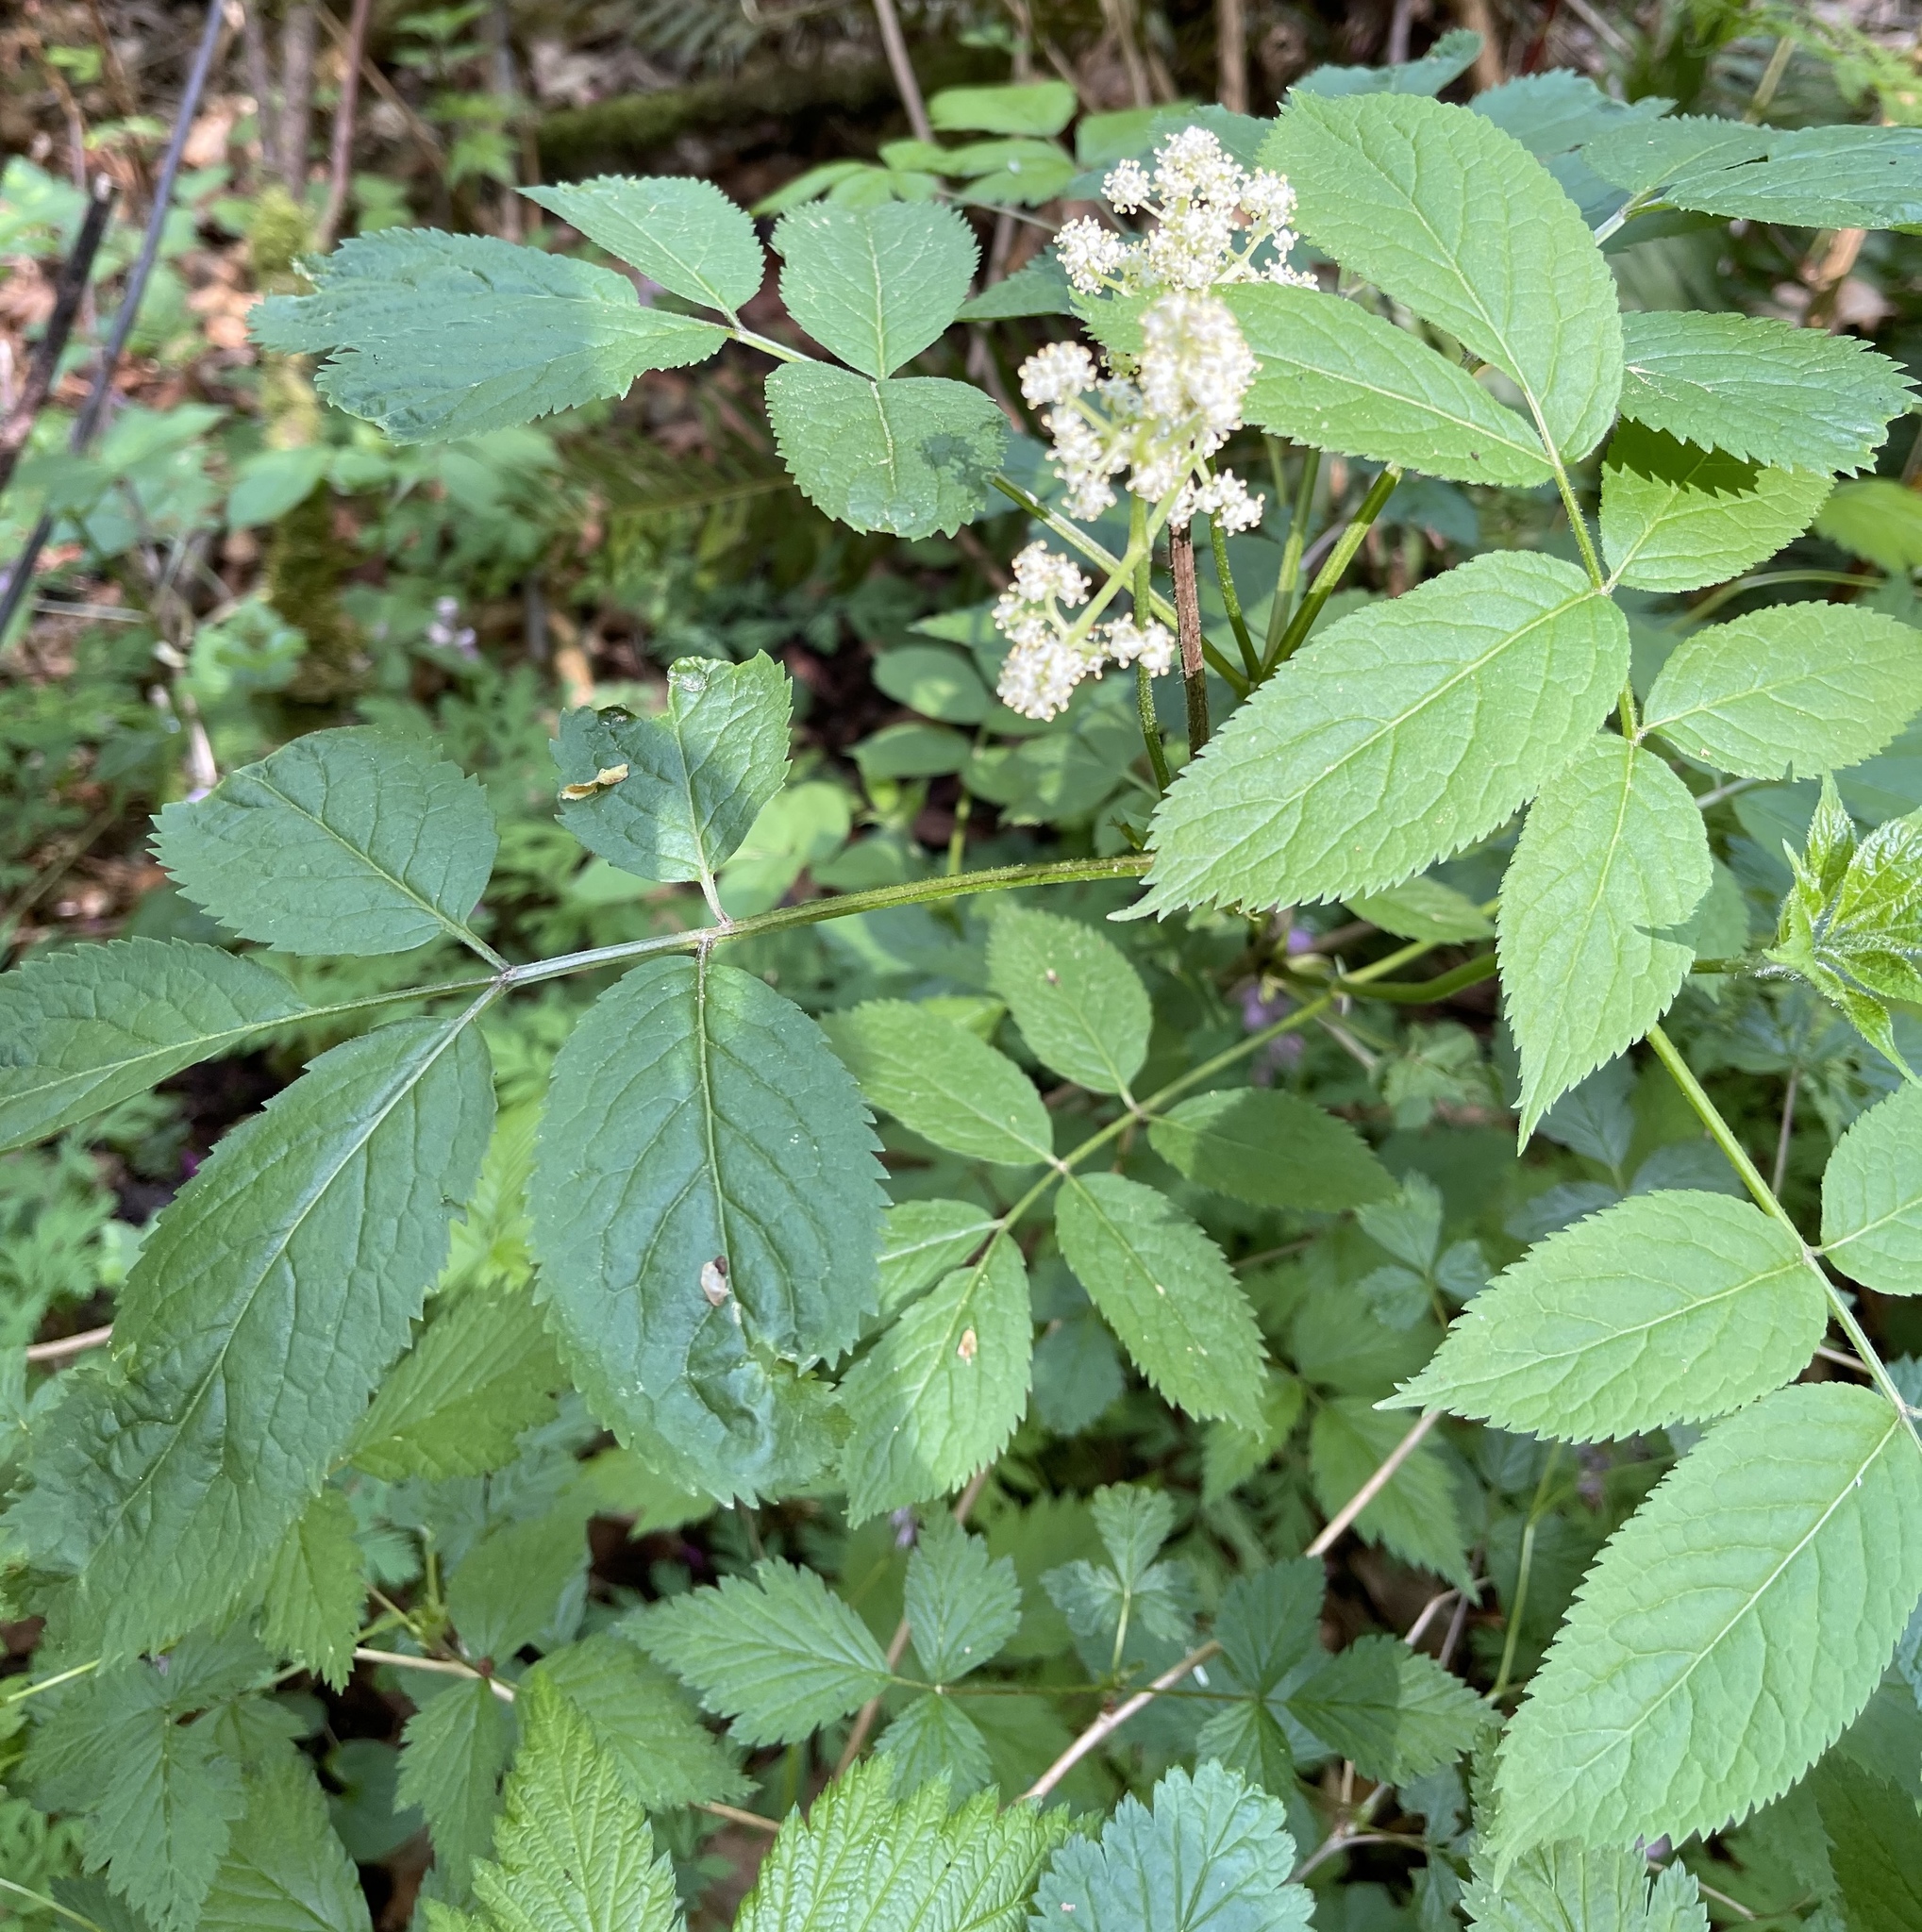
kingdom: Plantae
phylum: Tracheophyta
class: Magnoliopsida
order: Dipsacales
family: Viburnaceae
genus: Sambucus
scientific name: Sambucus racemosa
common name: Red-berried elder
